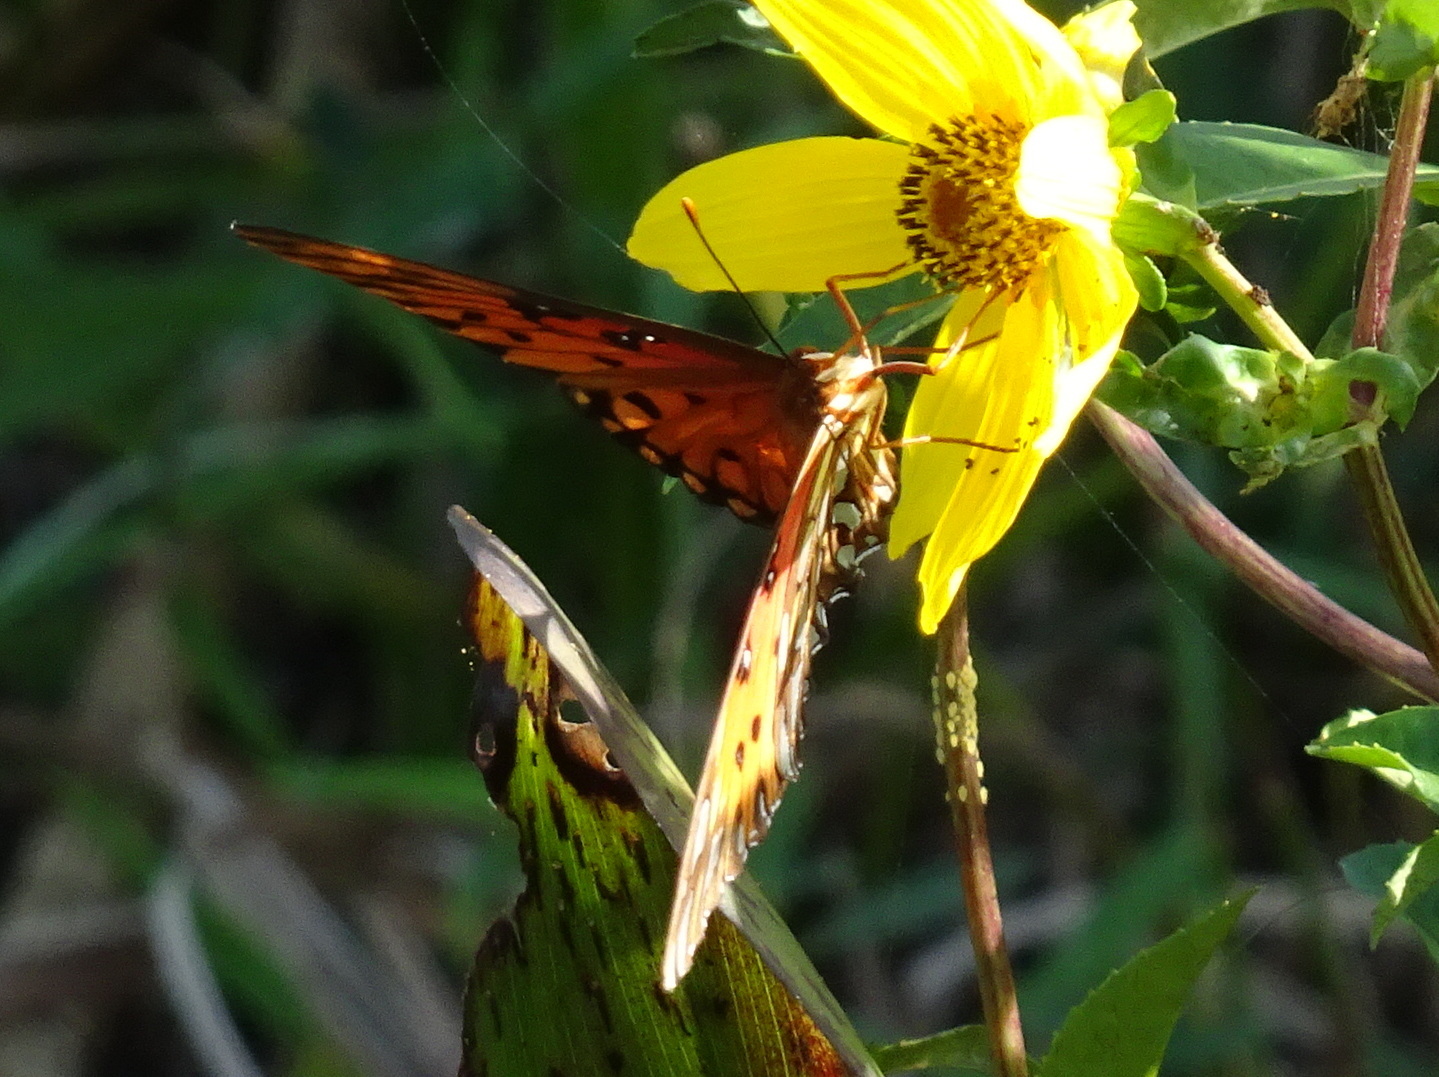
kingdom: Animalia
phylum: Arthropoda
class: Insecta
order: Lepidoptera
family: Nymphalidae
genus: Dione
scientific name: Dione vanillae
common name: Gulf fritillary
